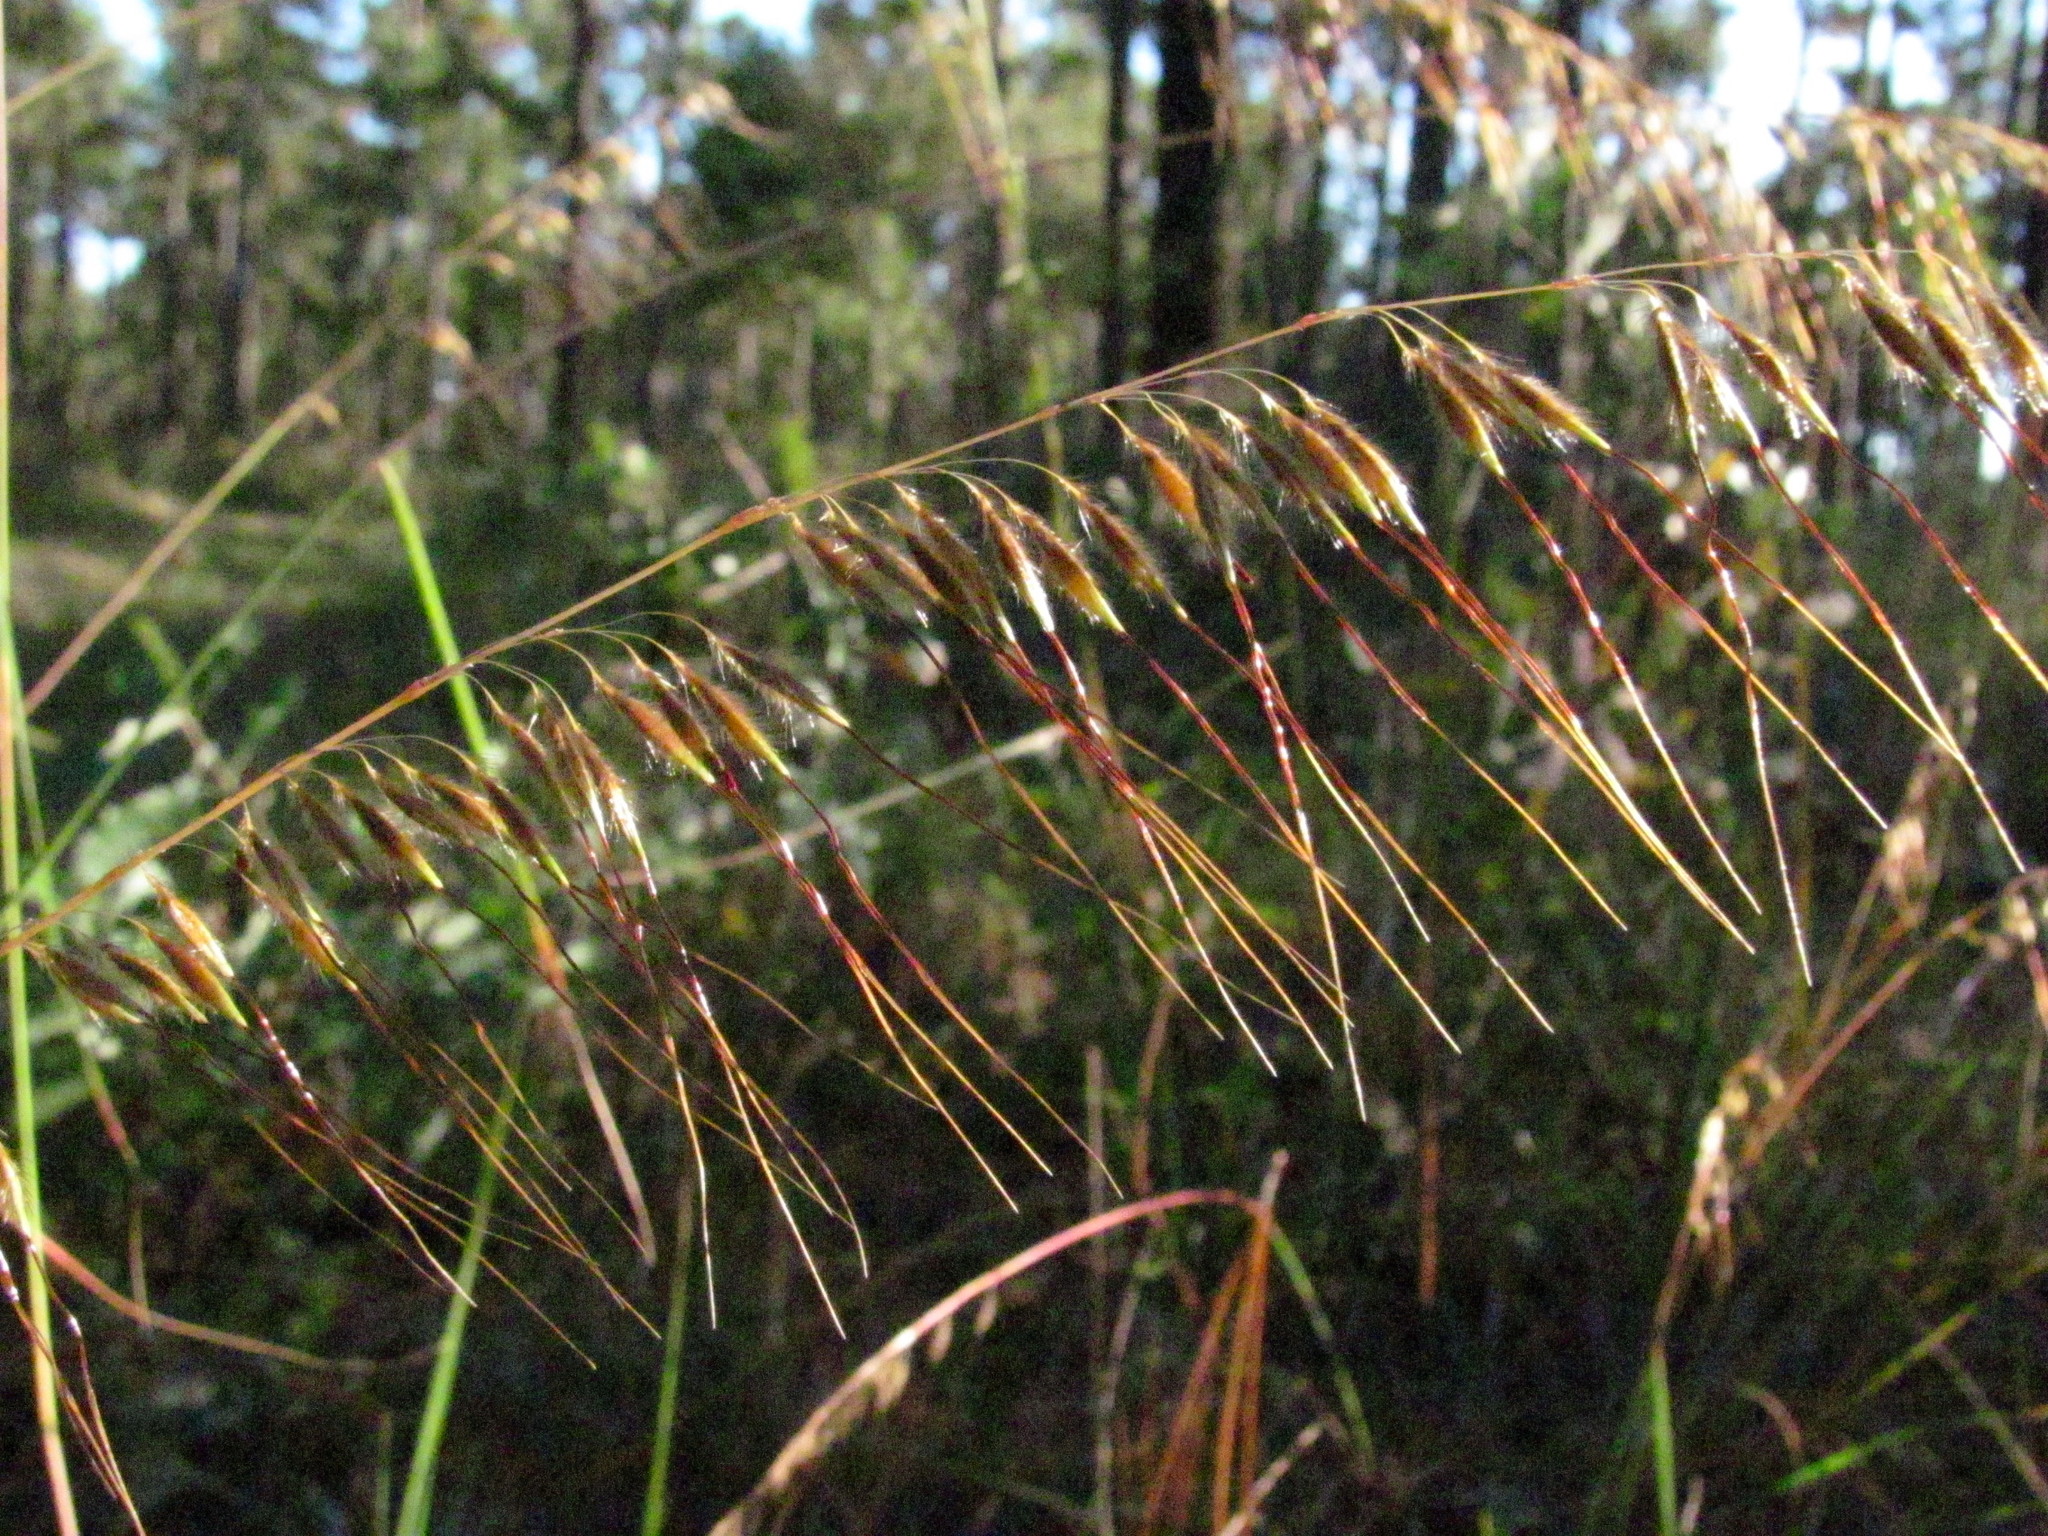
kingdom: Plantae
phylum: Tracheophyta
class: Liliopsida
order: Poales
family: Poaceae
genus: Sorghastrum
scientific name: Sorghastrum secundum
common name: Lopsided indian grass
